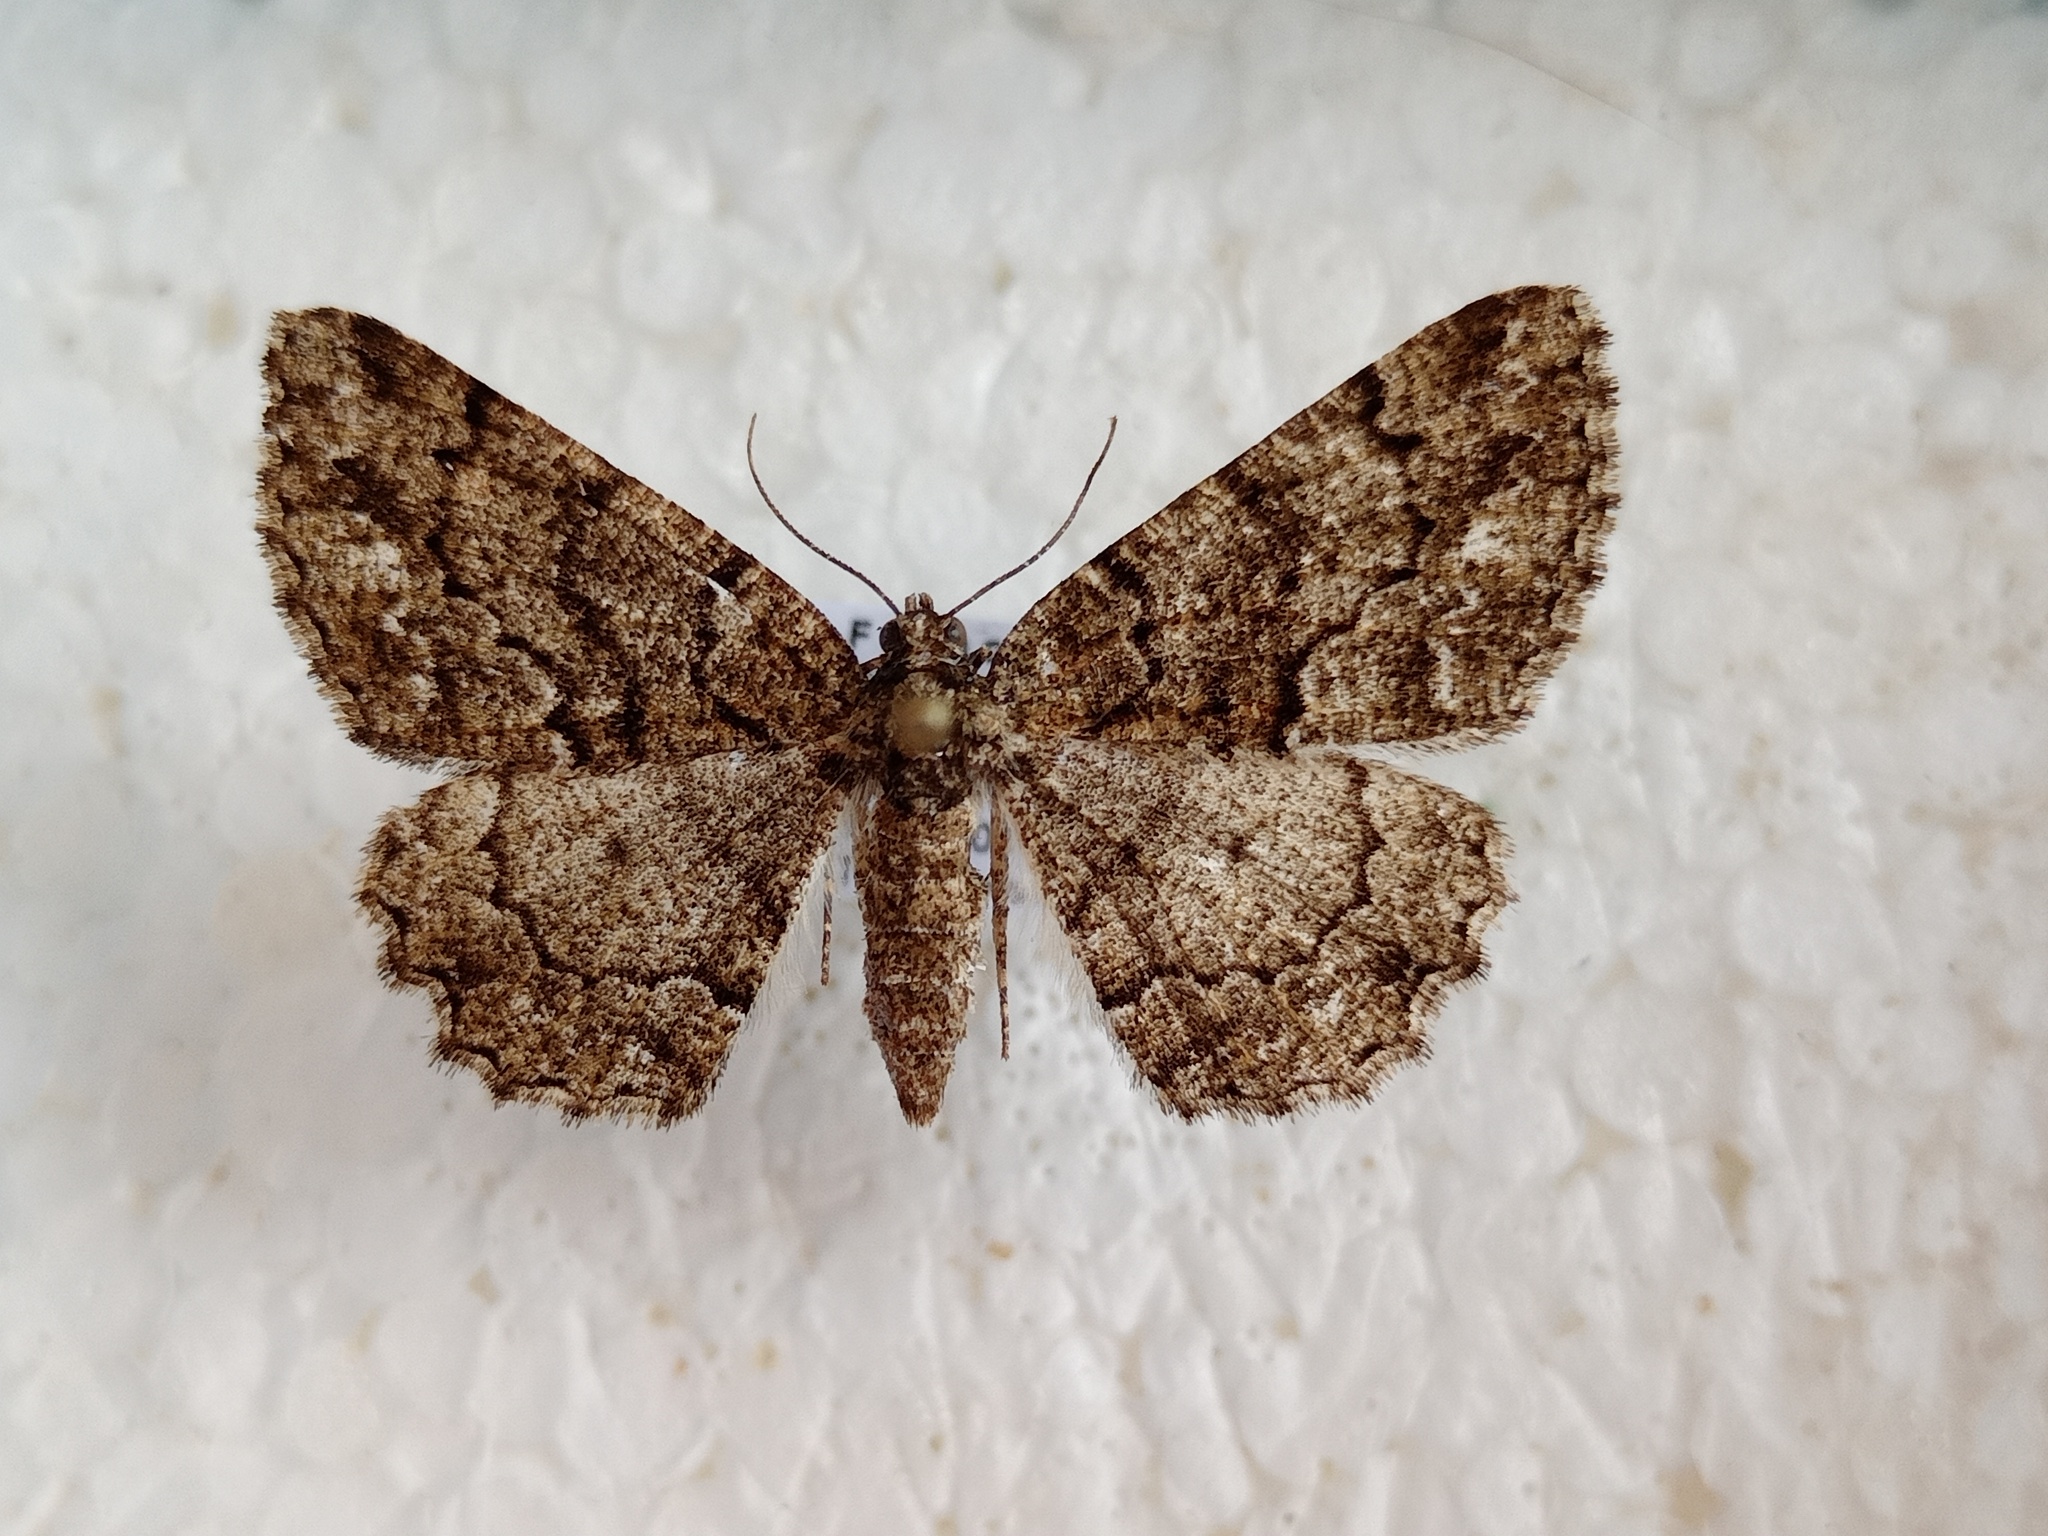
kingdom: Animalia
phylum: Arthropoda
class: Insecta
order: Lepidoptera
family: Geometridae
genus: Peribatodes
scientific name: Peribatodes ilicaria
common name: Lydd beauty
